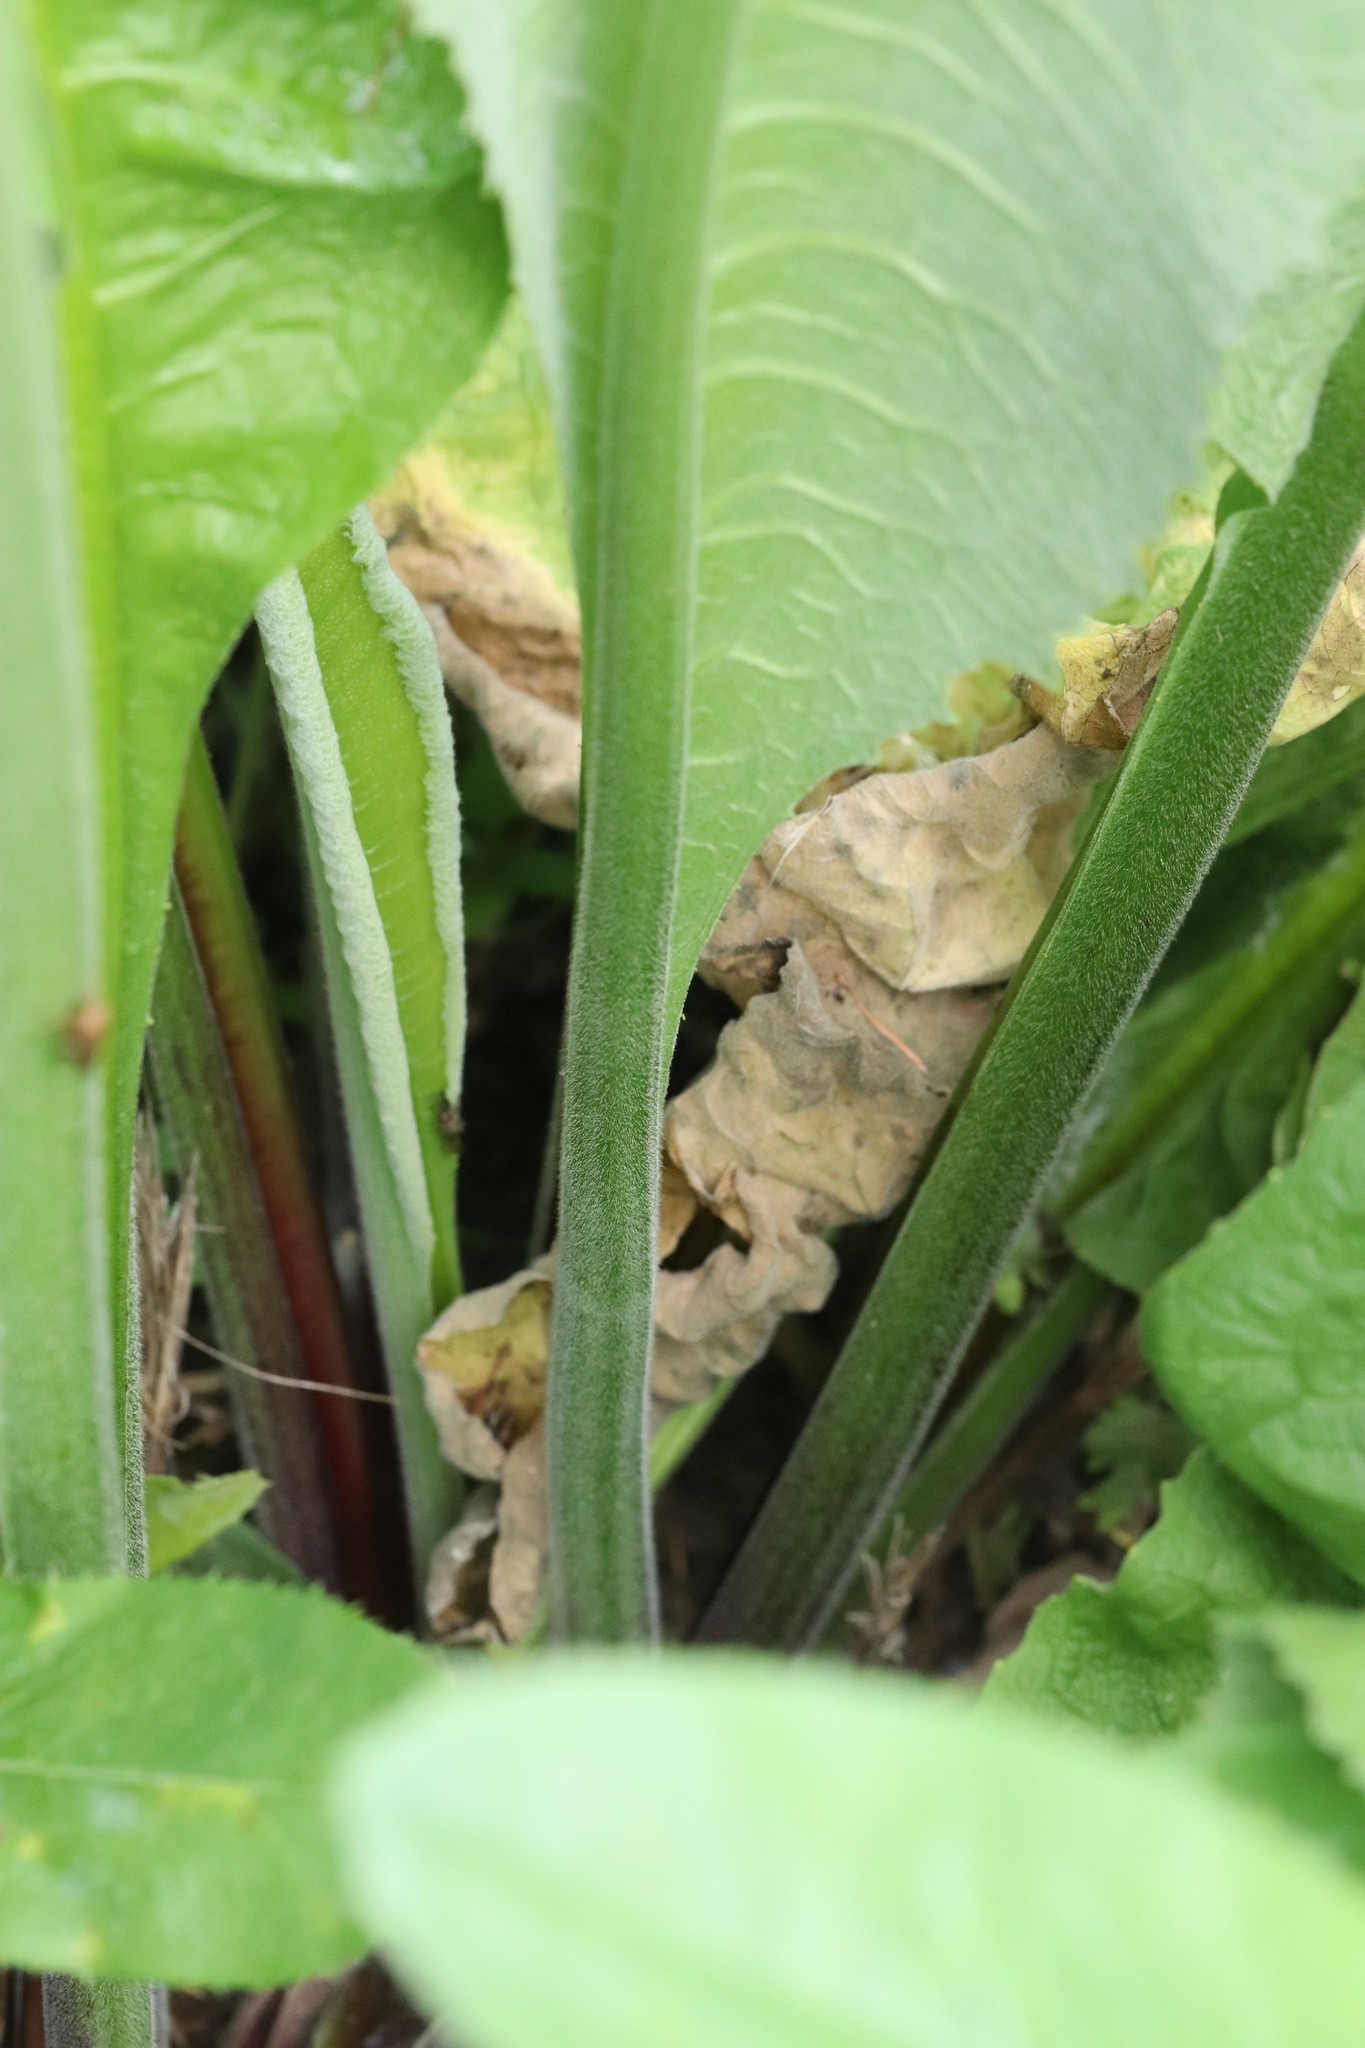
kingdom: Plantae
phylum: Tracheophyta
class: Magnoliopsida
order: Asterales
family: Asteraceae
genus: Inula
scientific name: Inula helenium
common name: Elecampane
